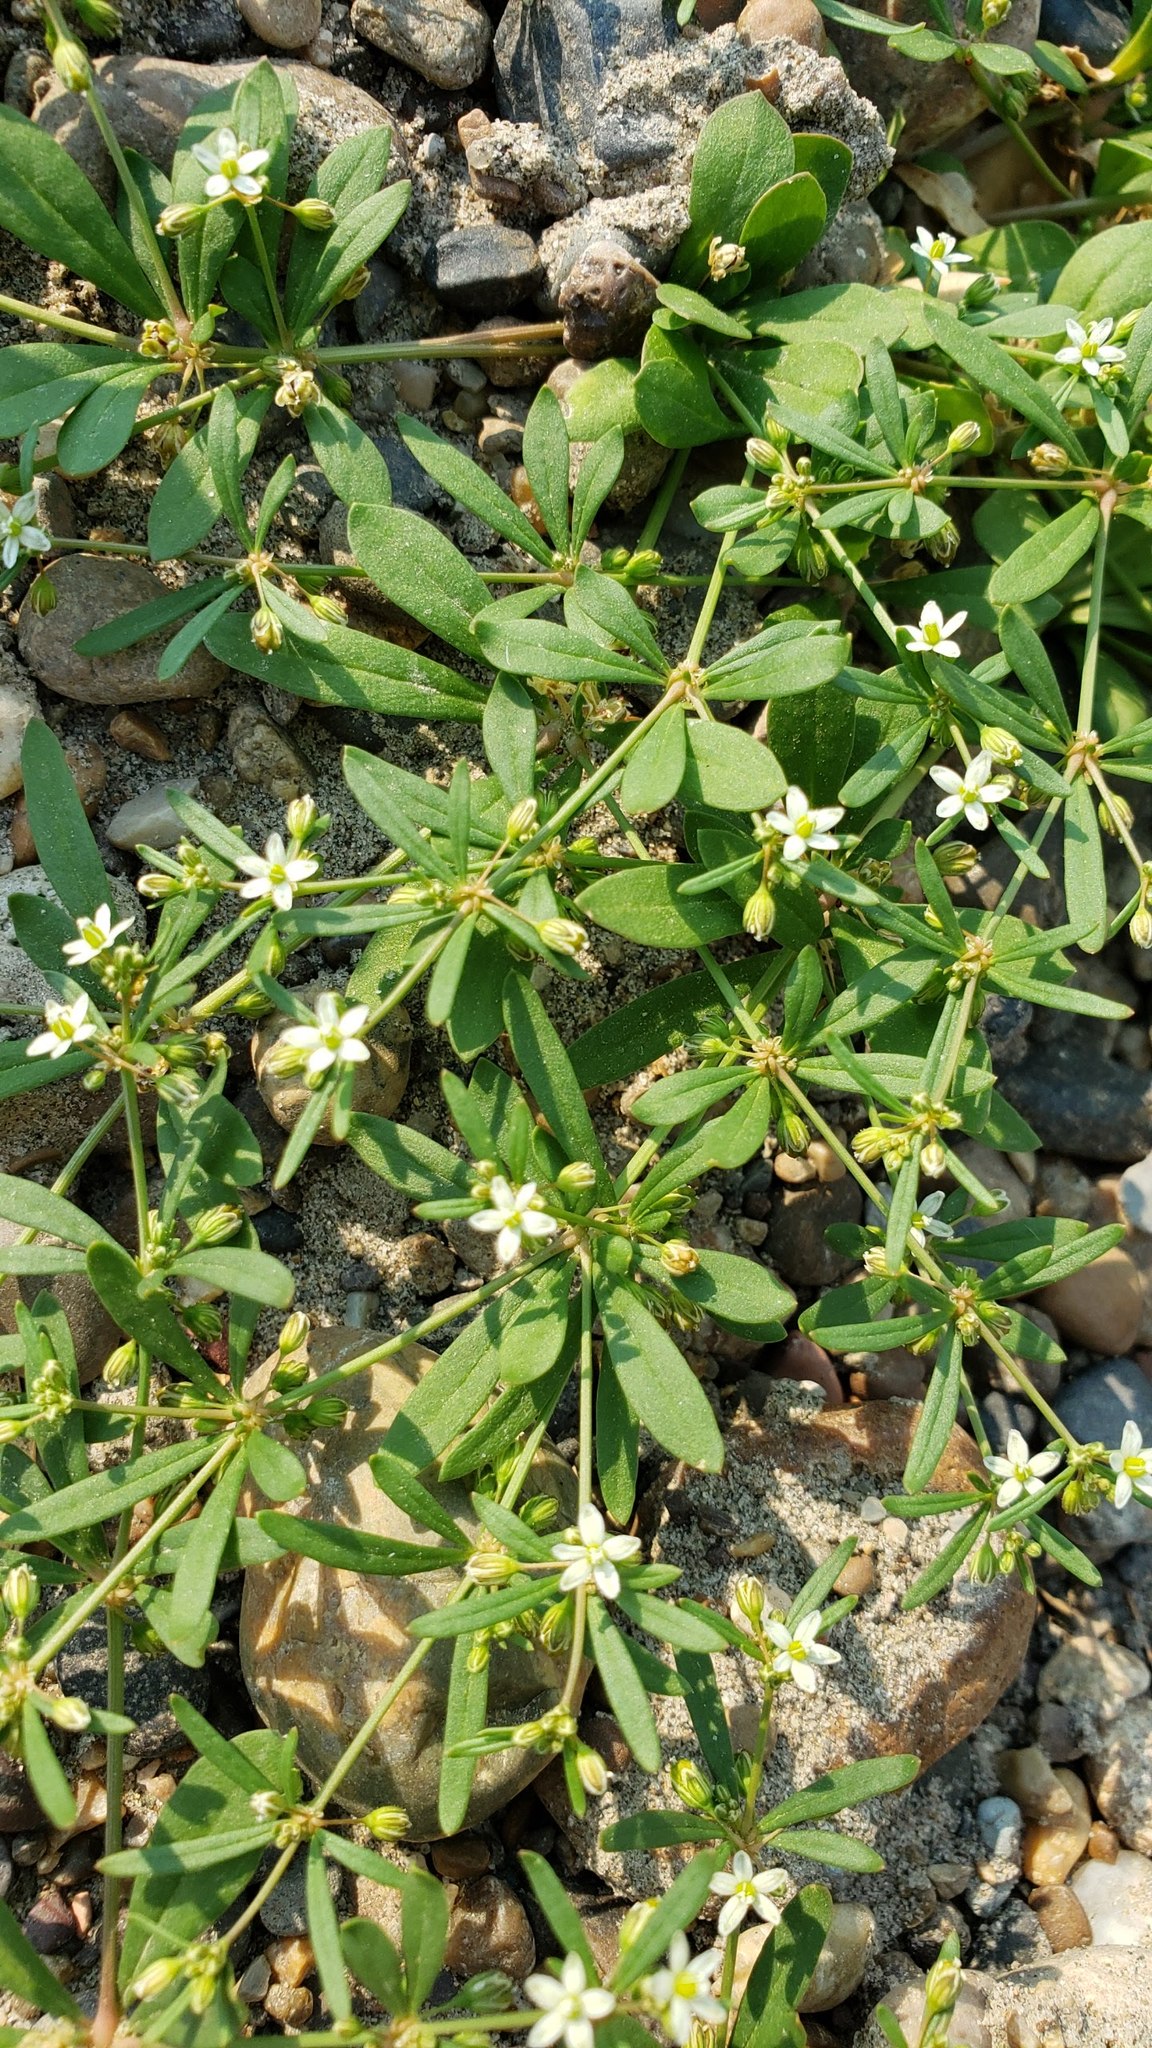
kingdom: Plantae
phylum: Tracheophyta
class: Magnoliopsida
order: Caryophyllales
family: Molluginaceae
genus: Mollugo
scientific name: Mollugo verticillata
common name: Green carpetweed
